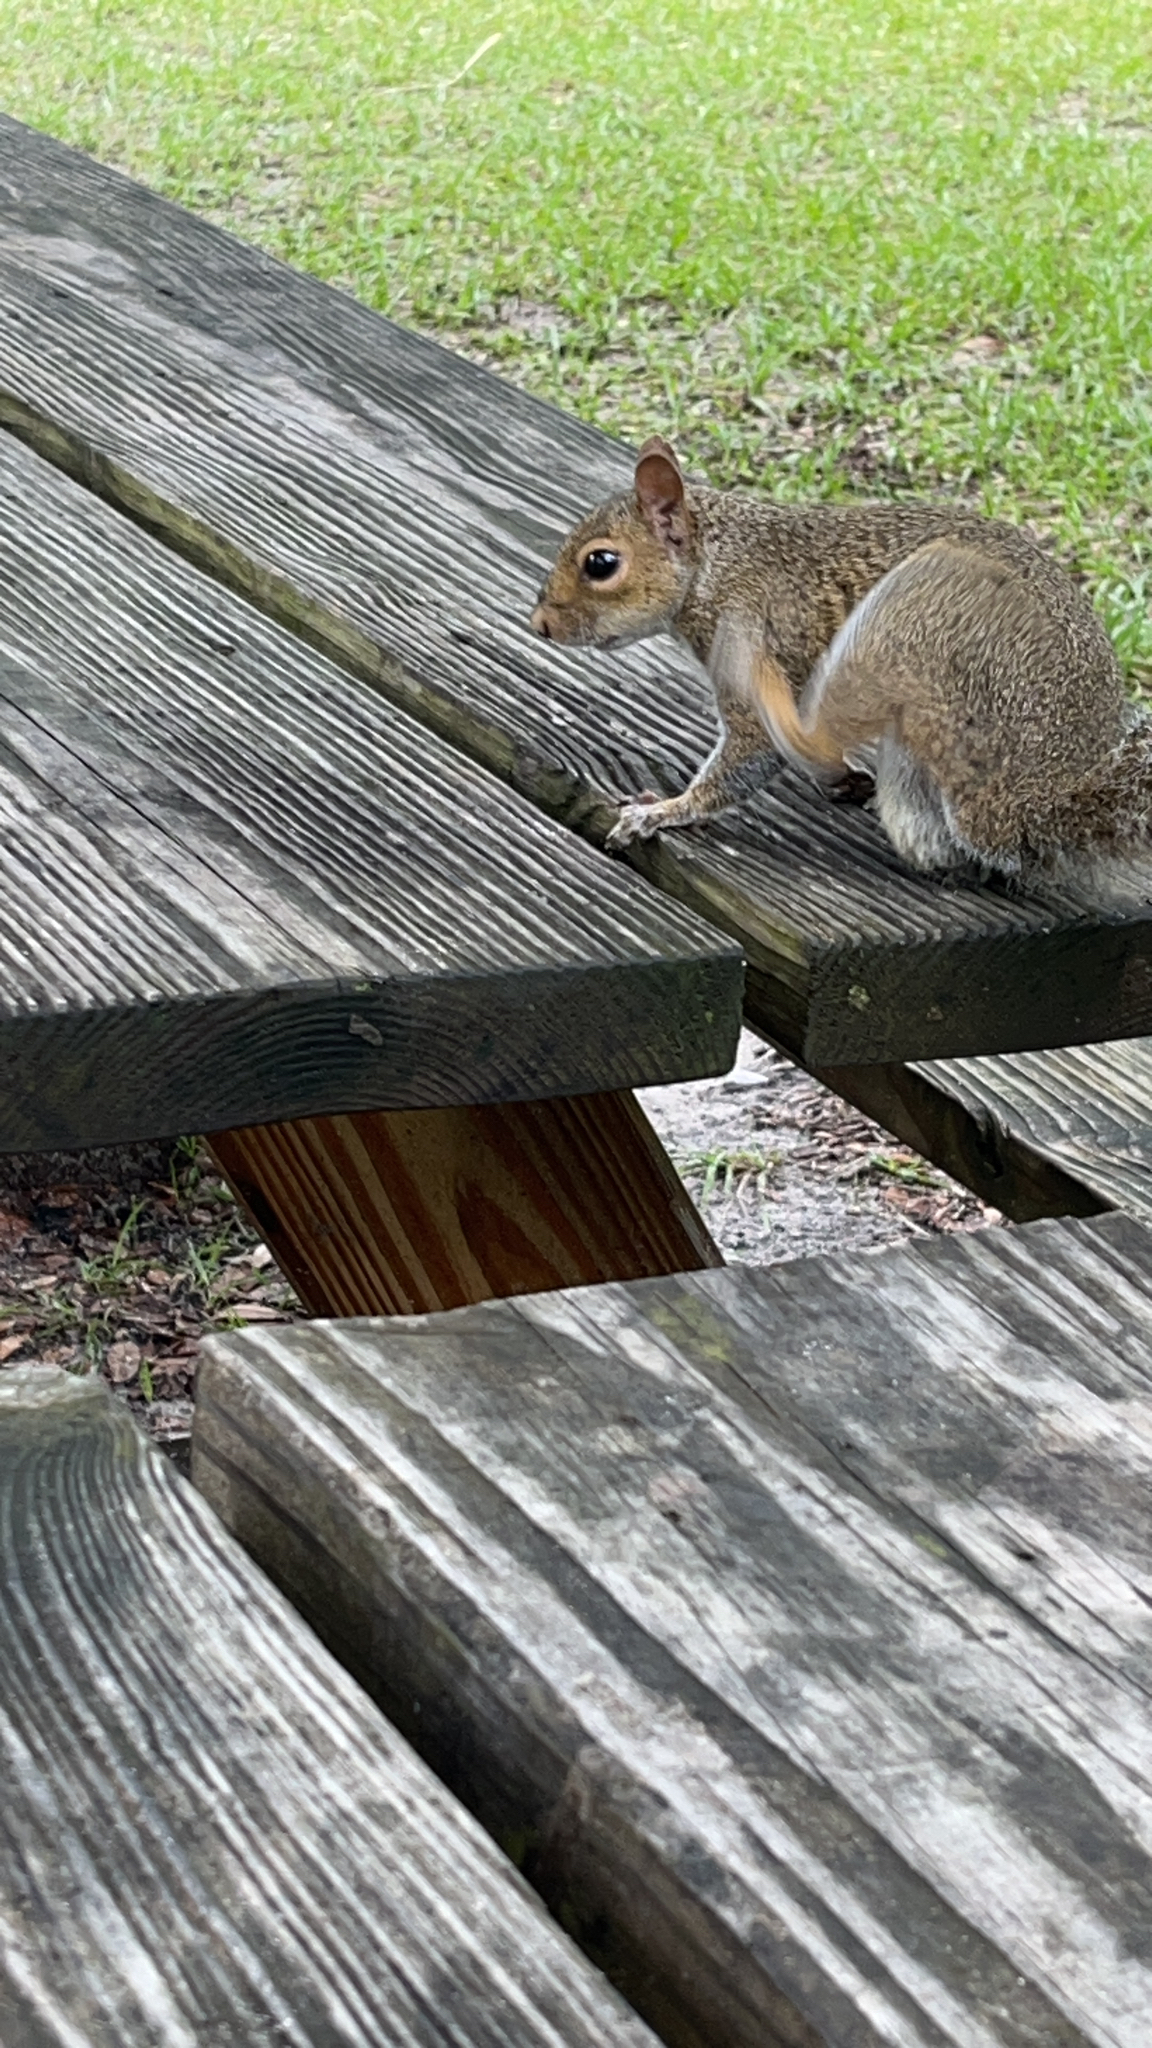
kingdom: Animalia
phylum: Chordata
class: Mammalia
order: Rodentia
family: Sciuridae
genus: Sciurus
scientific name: Sciurus carolinensis
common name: Eastern gray squirrel
